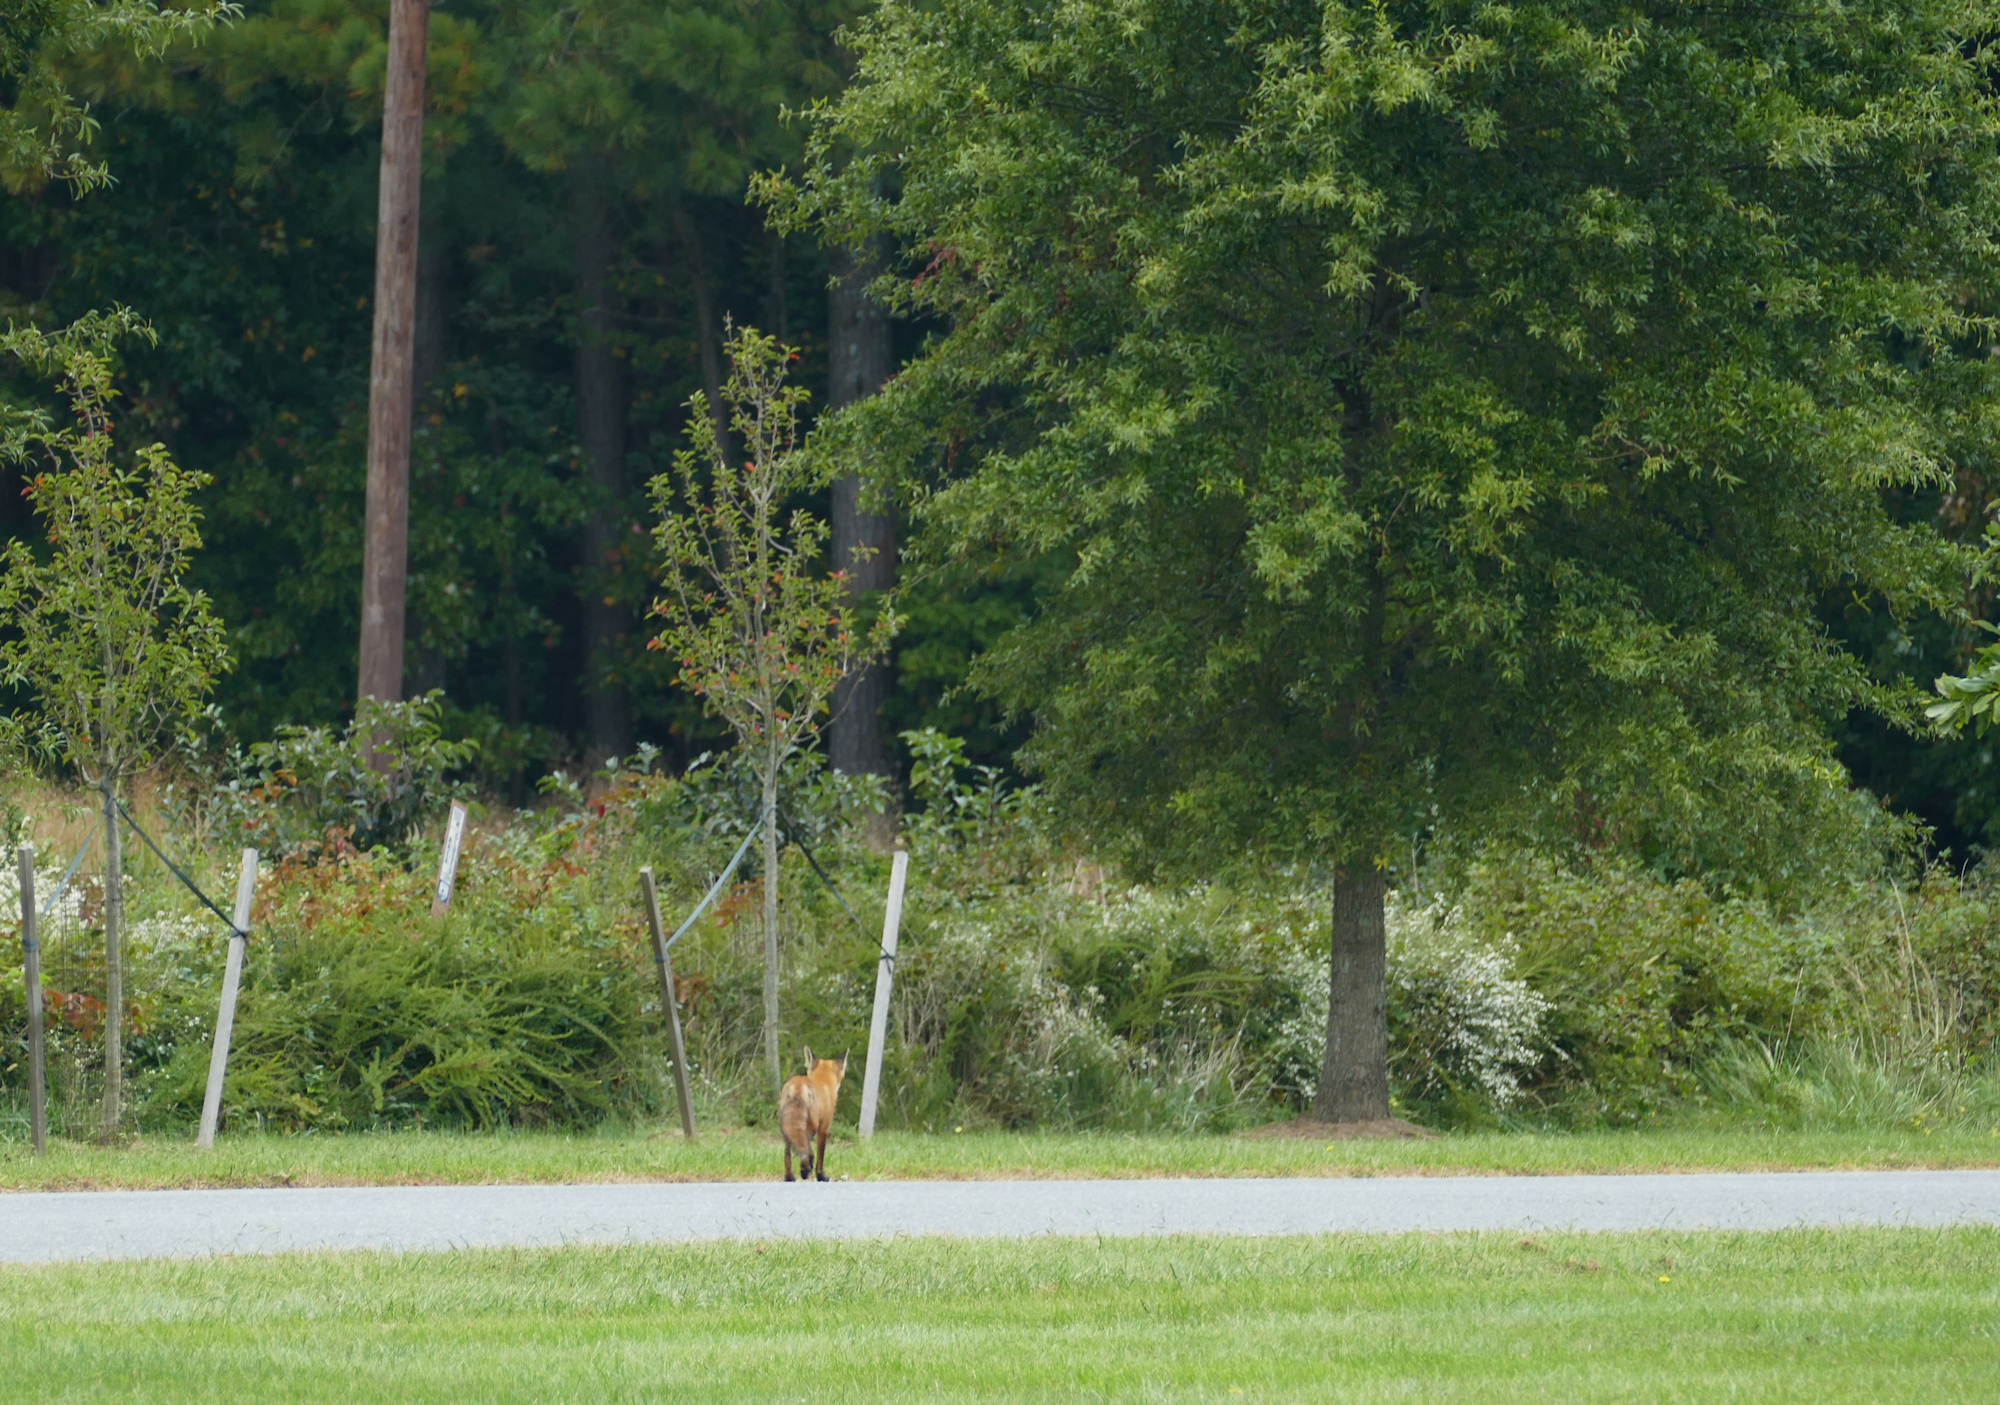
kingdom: Animalia
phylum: Chordata
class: Mammalia
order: Carnivora
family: Canidae
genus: Vulpes
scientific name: Vulpes vulpes
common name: Red fox
